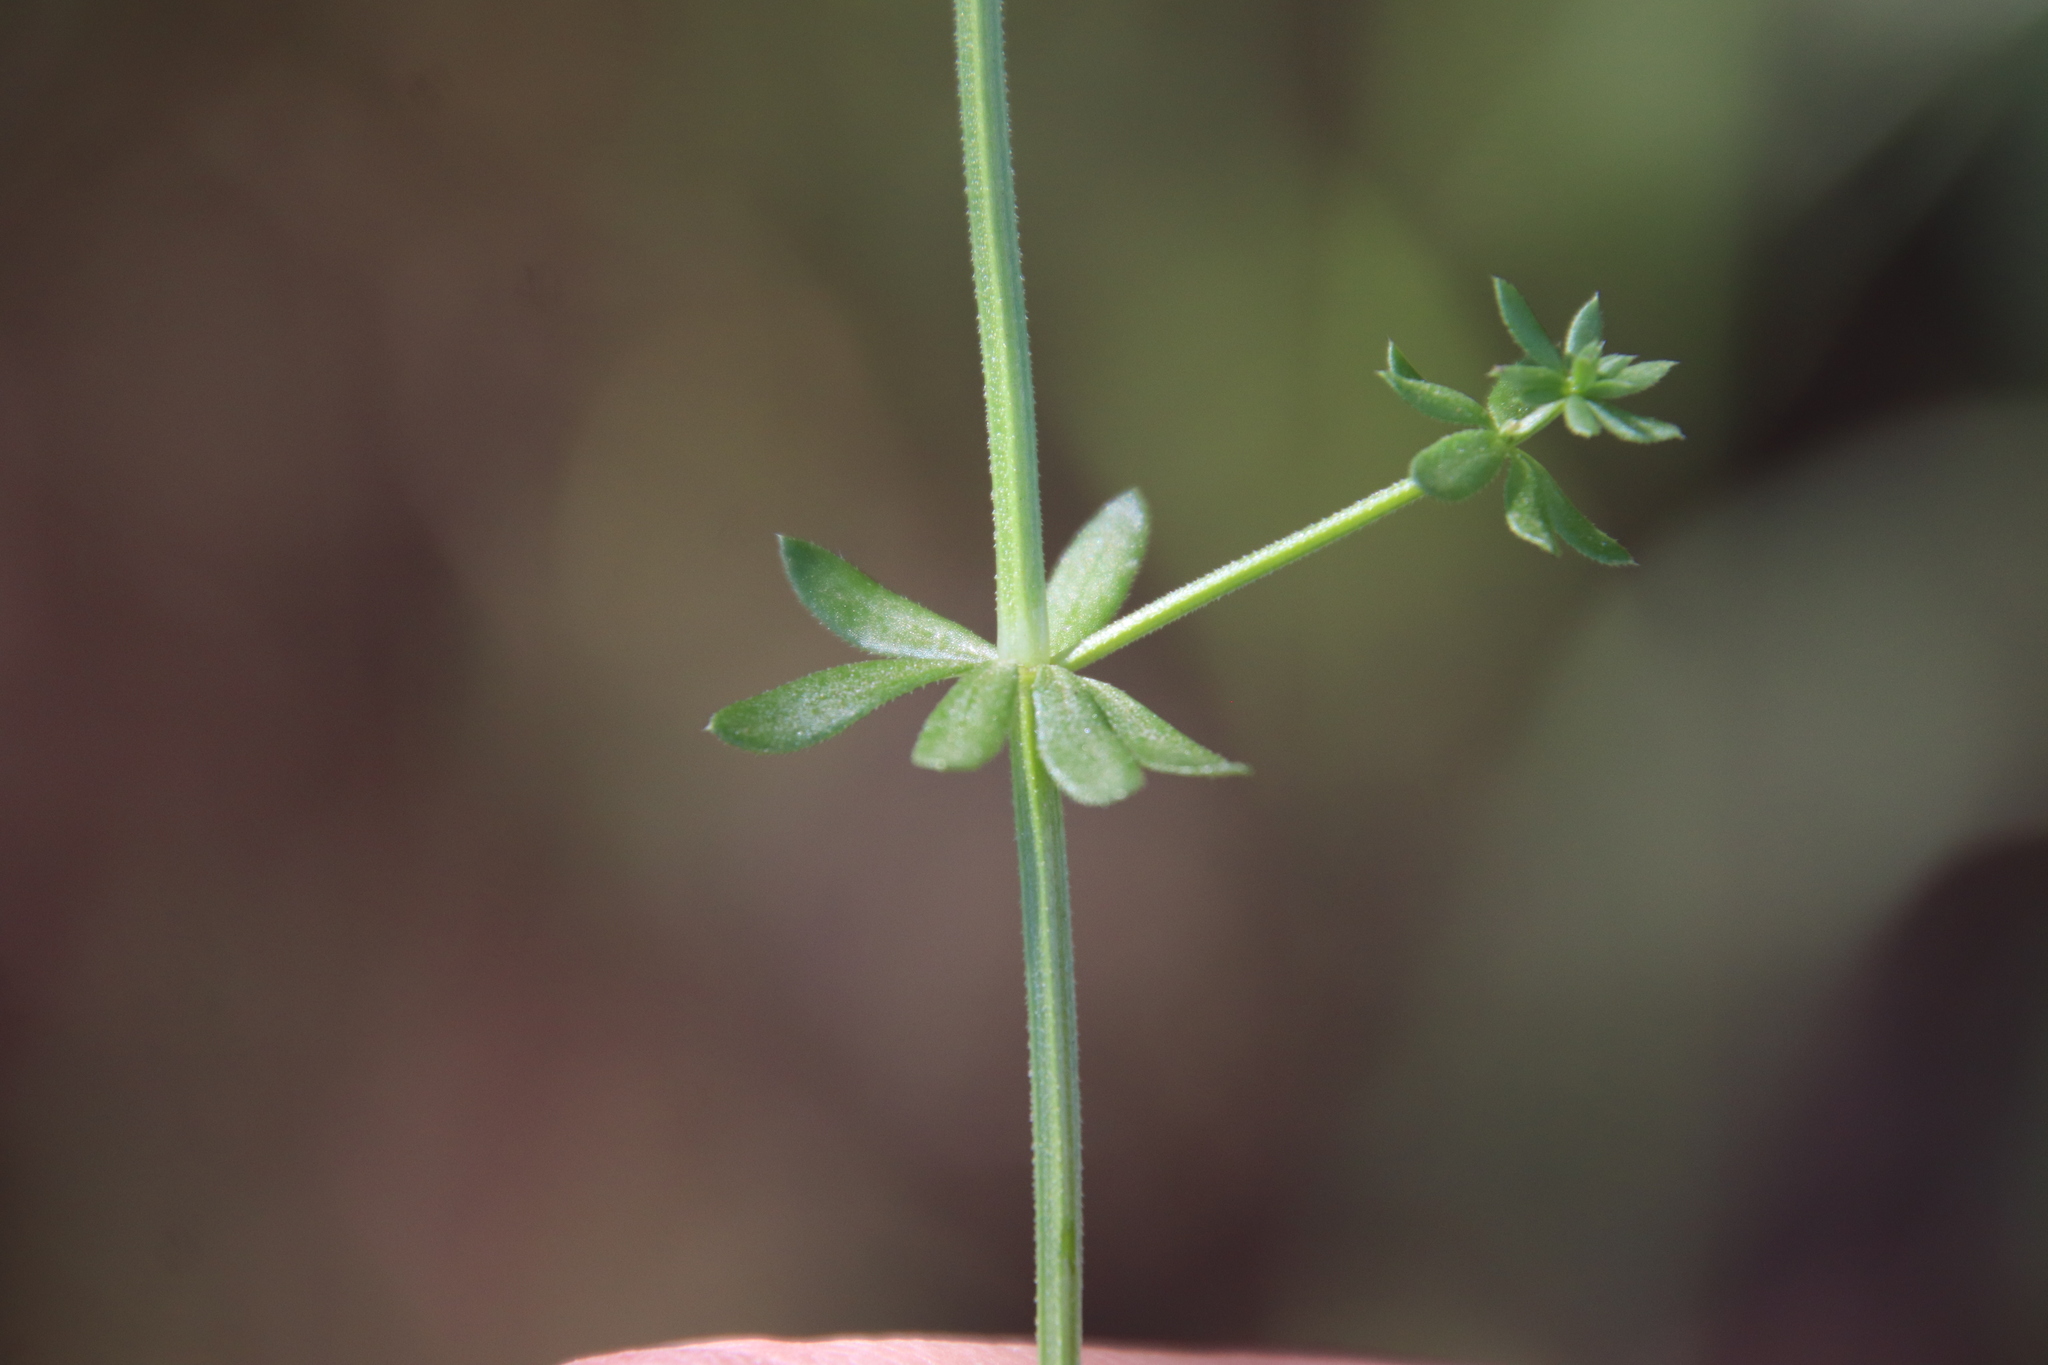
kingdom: Plantae
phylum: Tracheophyta
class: Magnoliopsida
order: Gentianales
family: Rubiaceae
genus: Galium
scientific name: Galium parisiense
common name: Wall bedstraw
